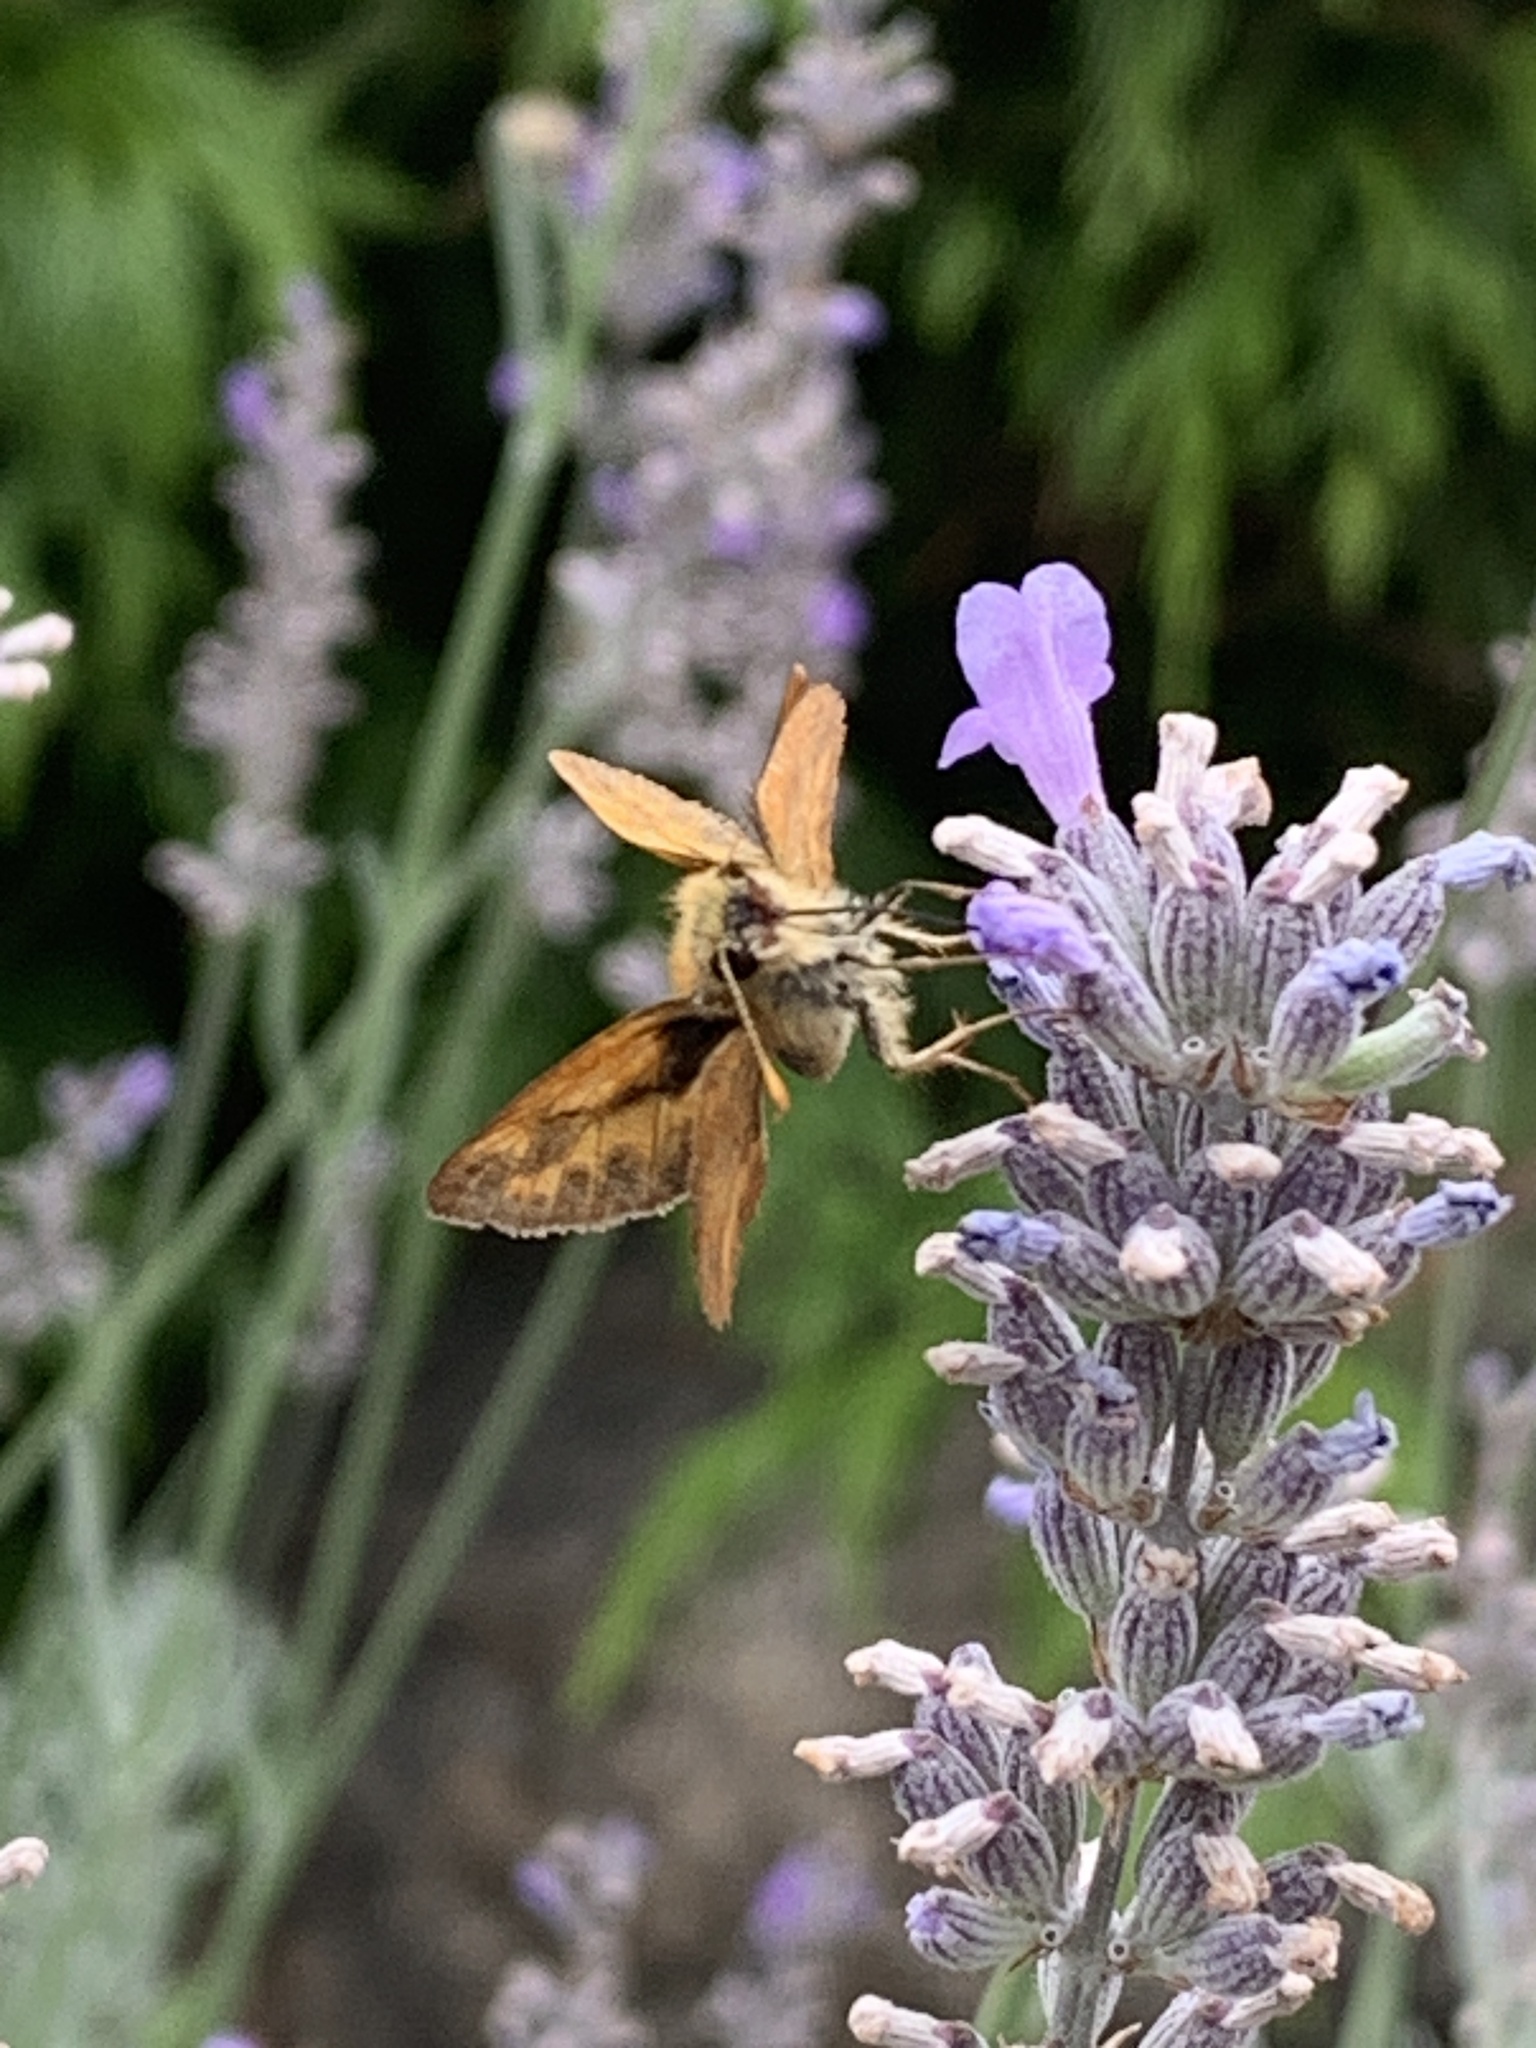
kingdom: Animalia
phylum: Arthropoda
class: Insecta
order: Lepidoptera
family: Hesperiidae
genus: Ochlodes
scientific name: Ochlodes sylvanoides
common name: Woodland skipper
